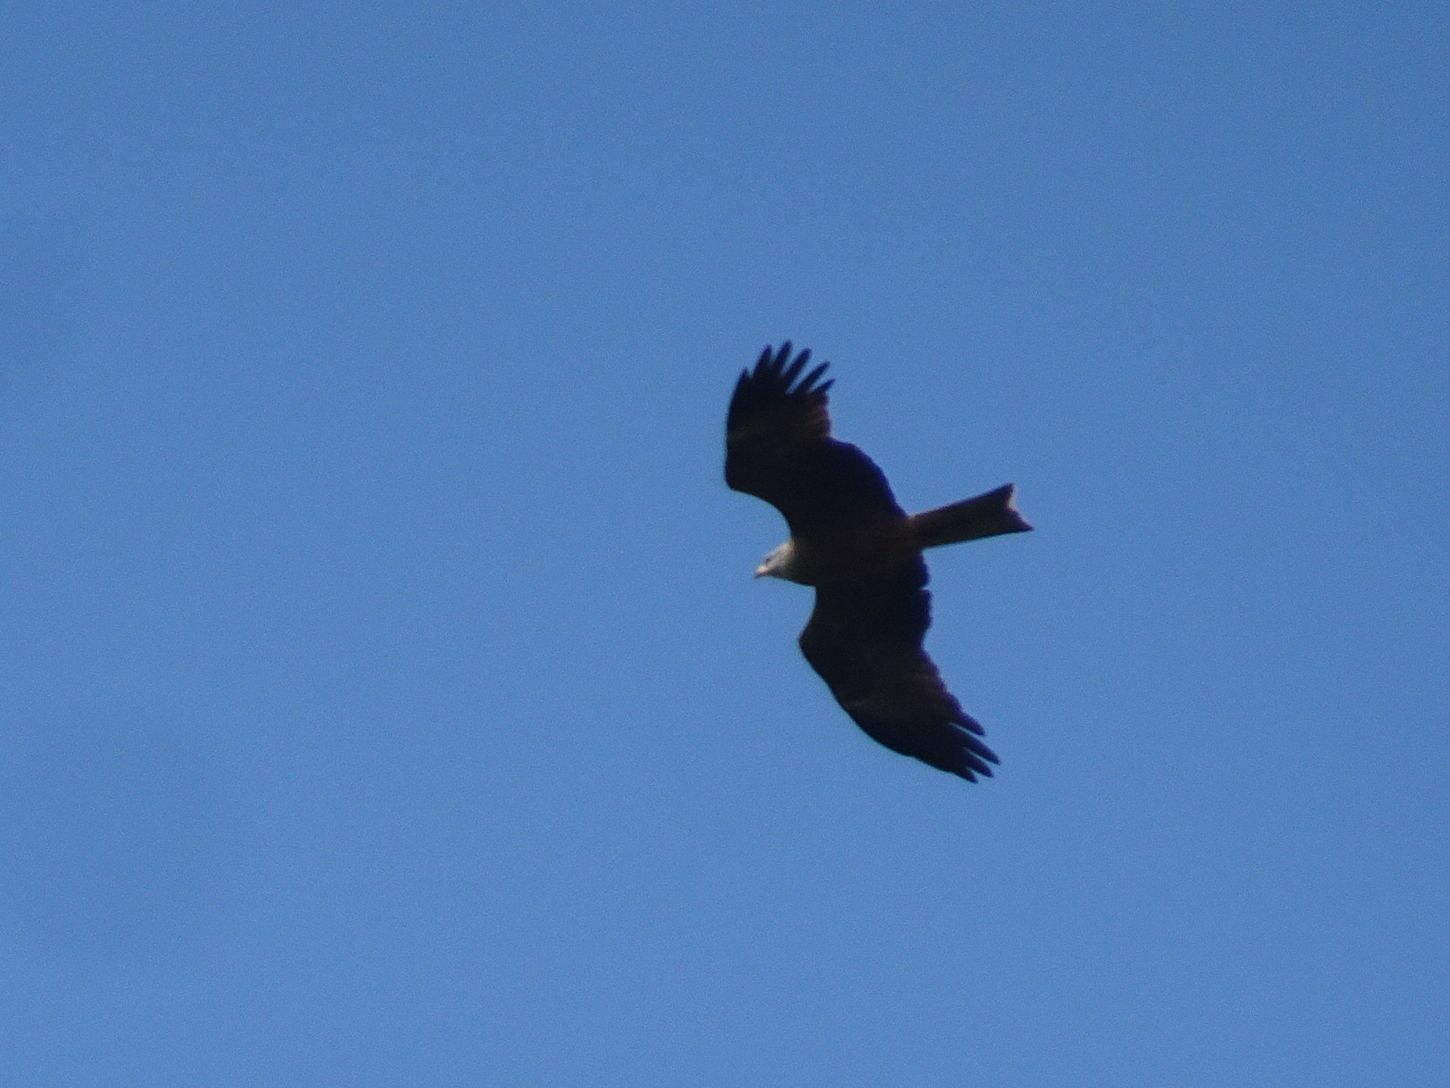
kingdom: Animalia
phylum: Chordata
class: Aves
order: Accipitriformes
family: Accipitridae
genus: Milvus
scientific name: Milvus migrans
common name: Black kite
